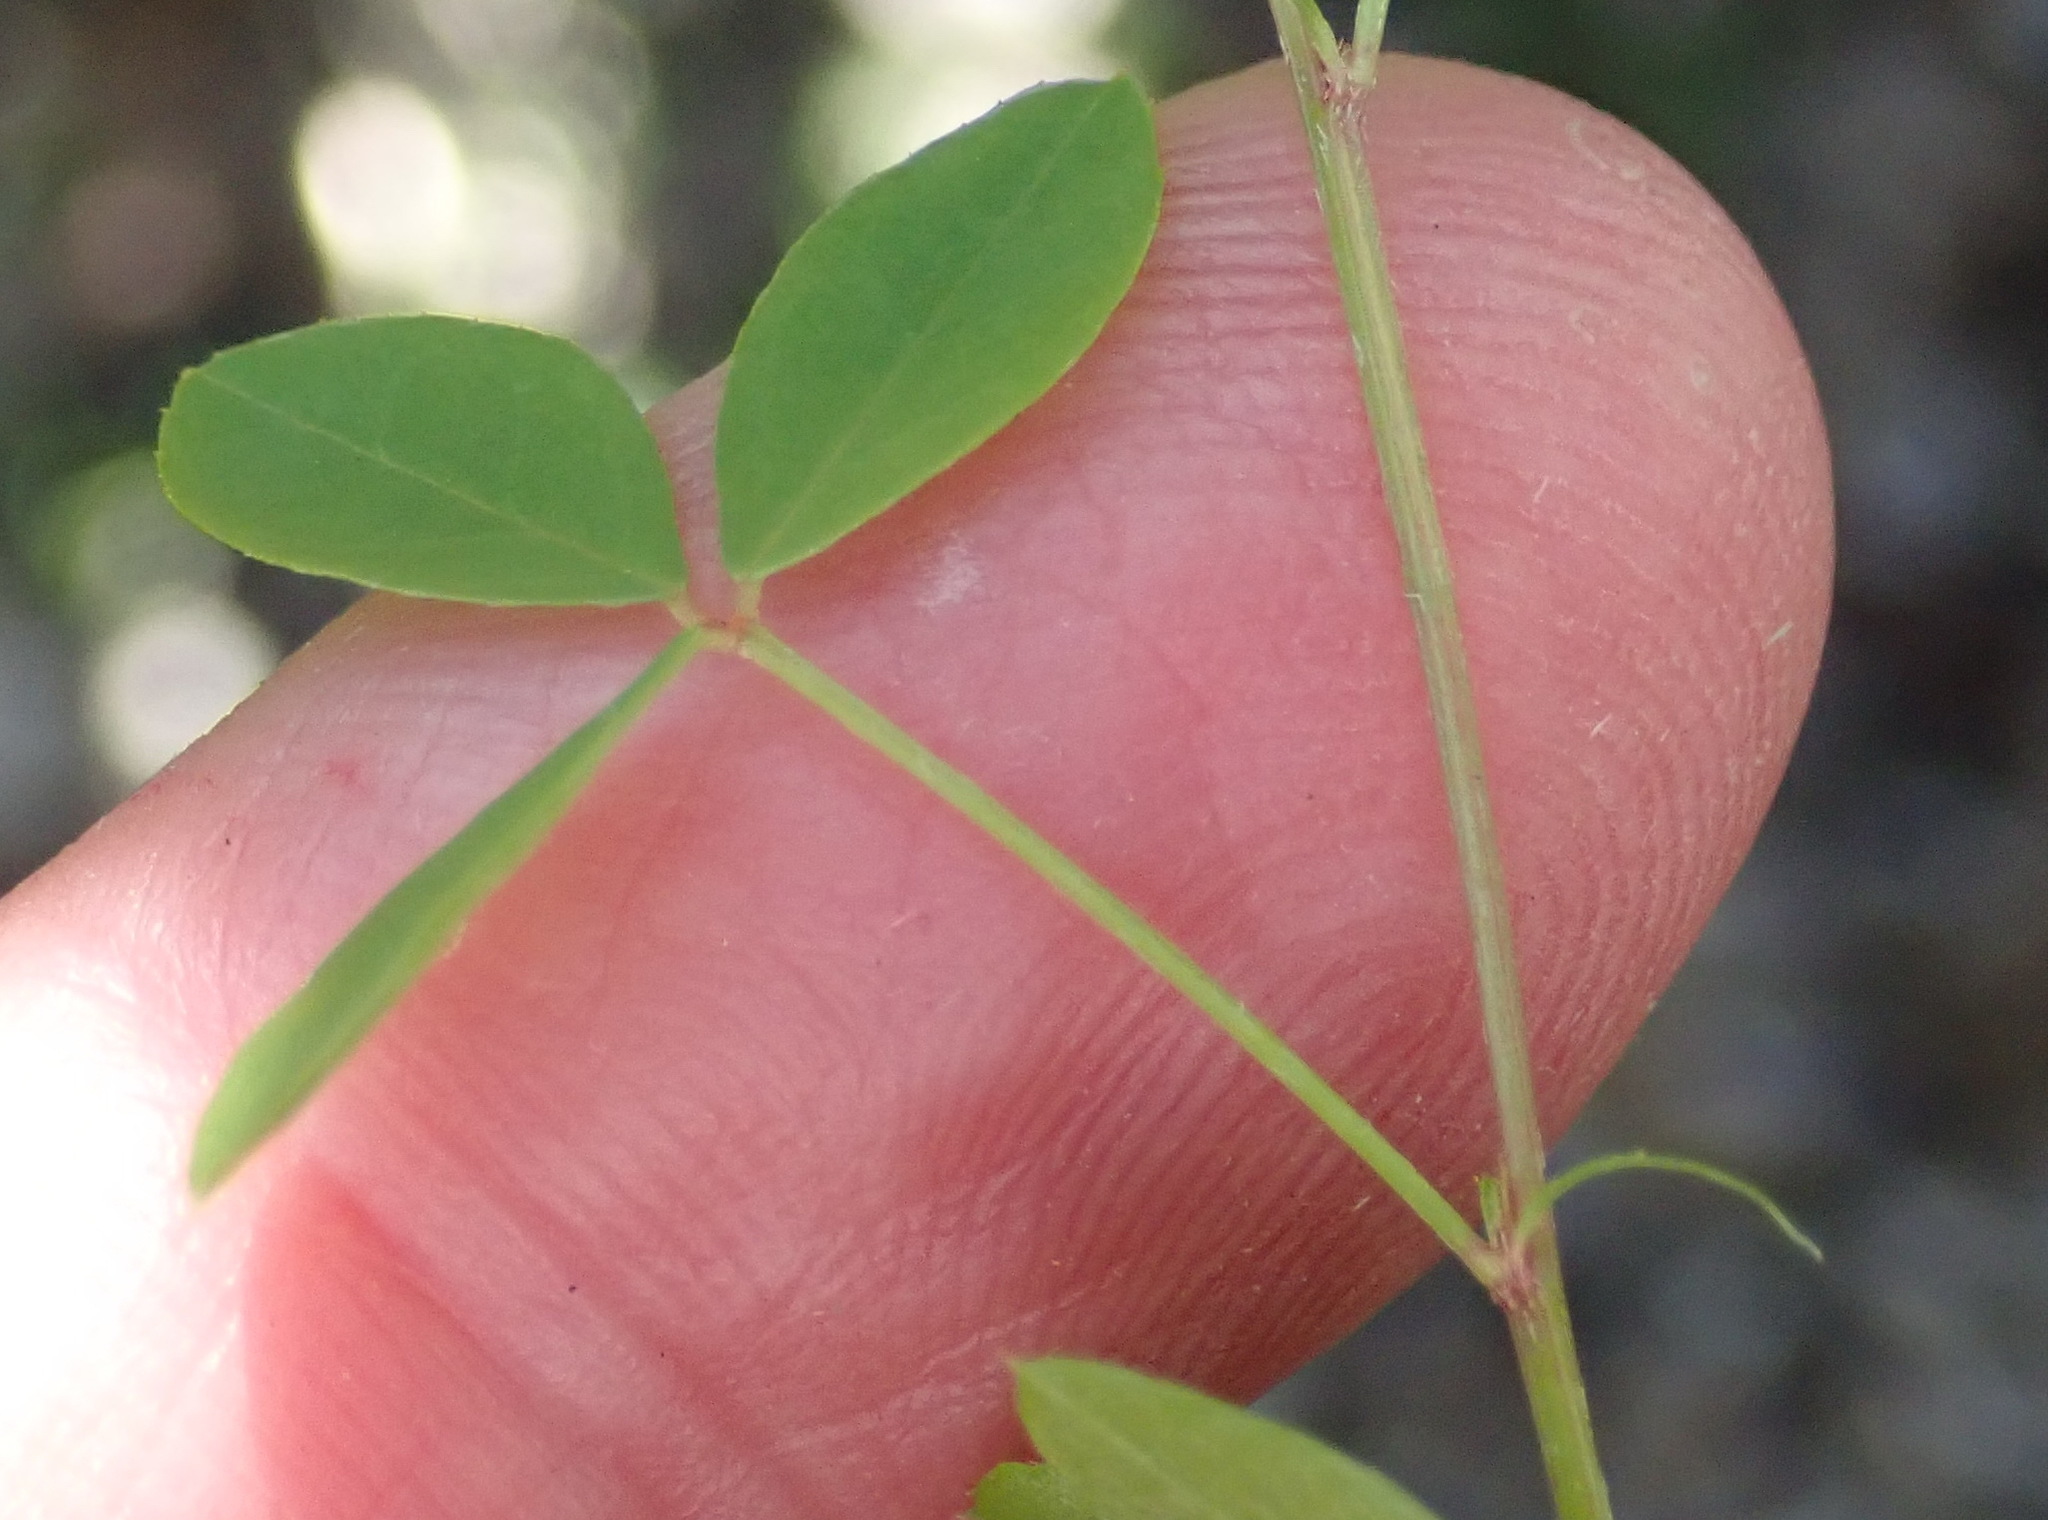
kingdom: Plantae
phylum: Tracheophyta
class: Magnoliopsida
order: Fabales
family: Fabaceae
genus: Indigofera
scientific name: Indigofera erecta
